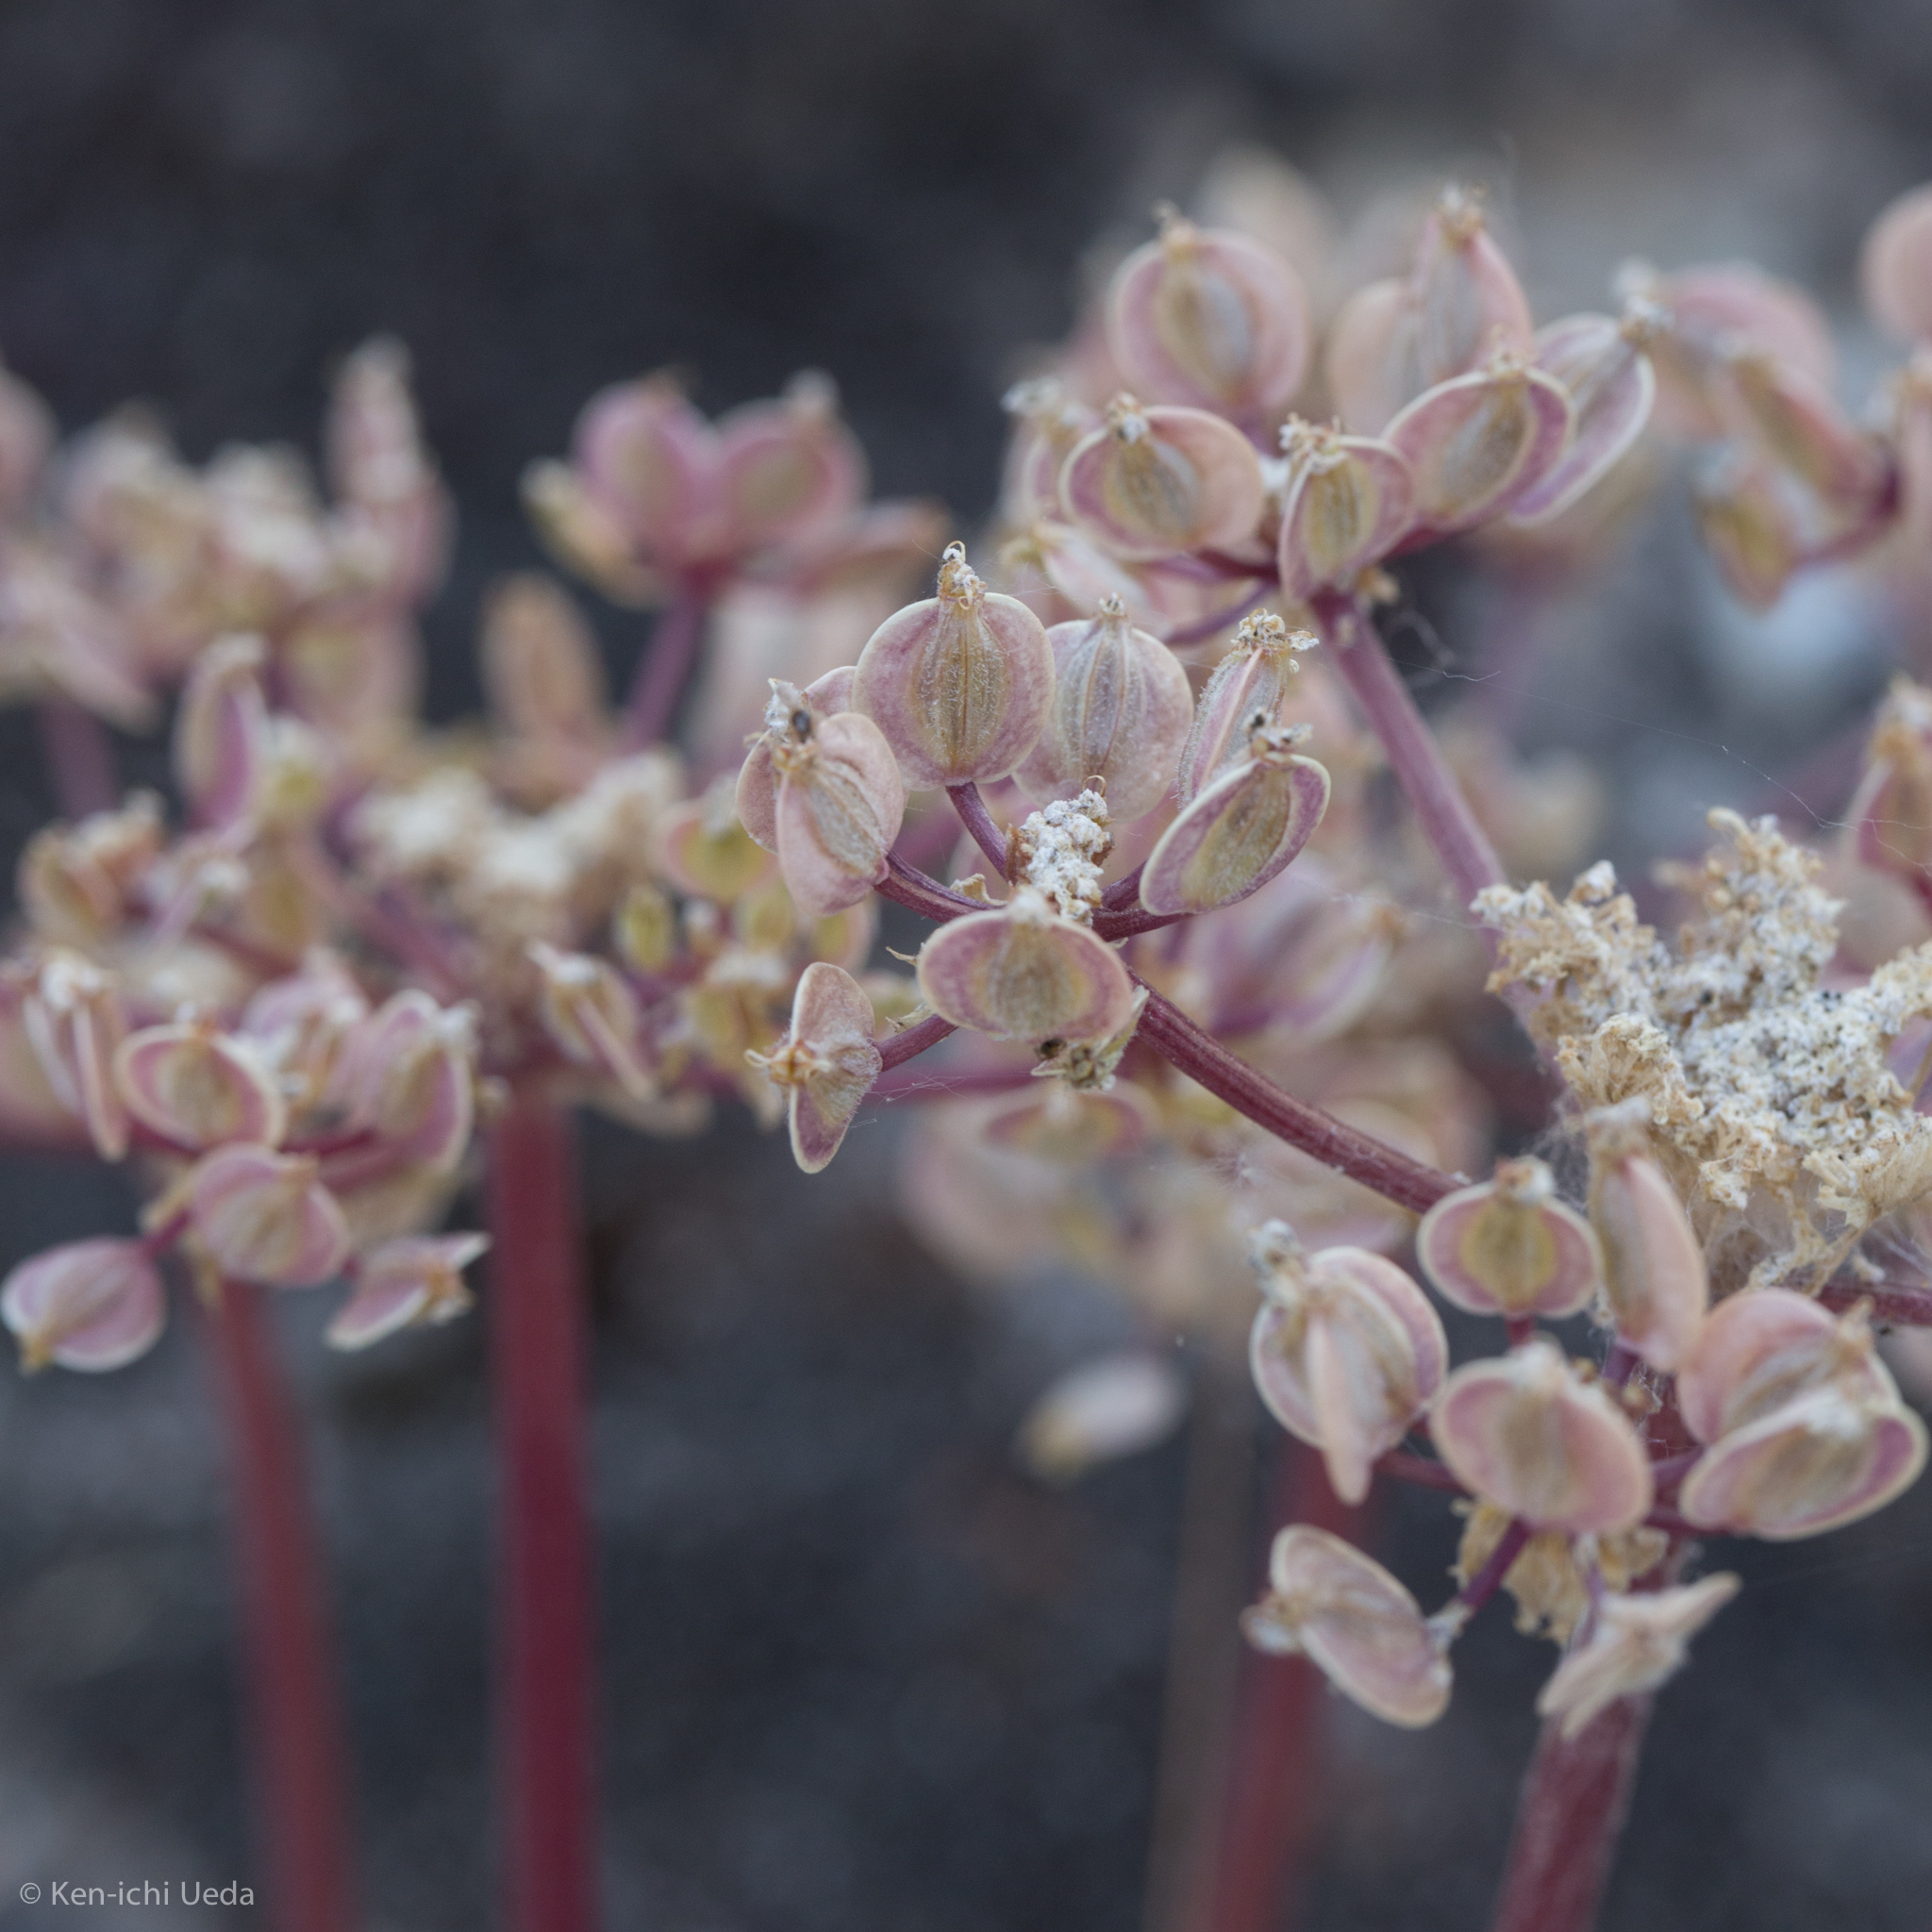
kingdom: Plantae
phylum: Tracheophyta
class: Magnoliopsida
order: Apiales
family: Apiaceae
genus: Lomatium
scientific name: Lomatium dasycarpum
